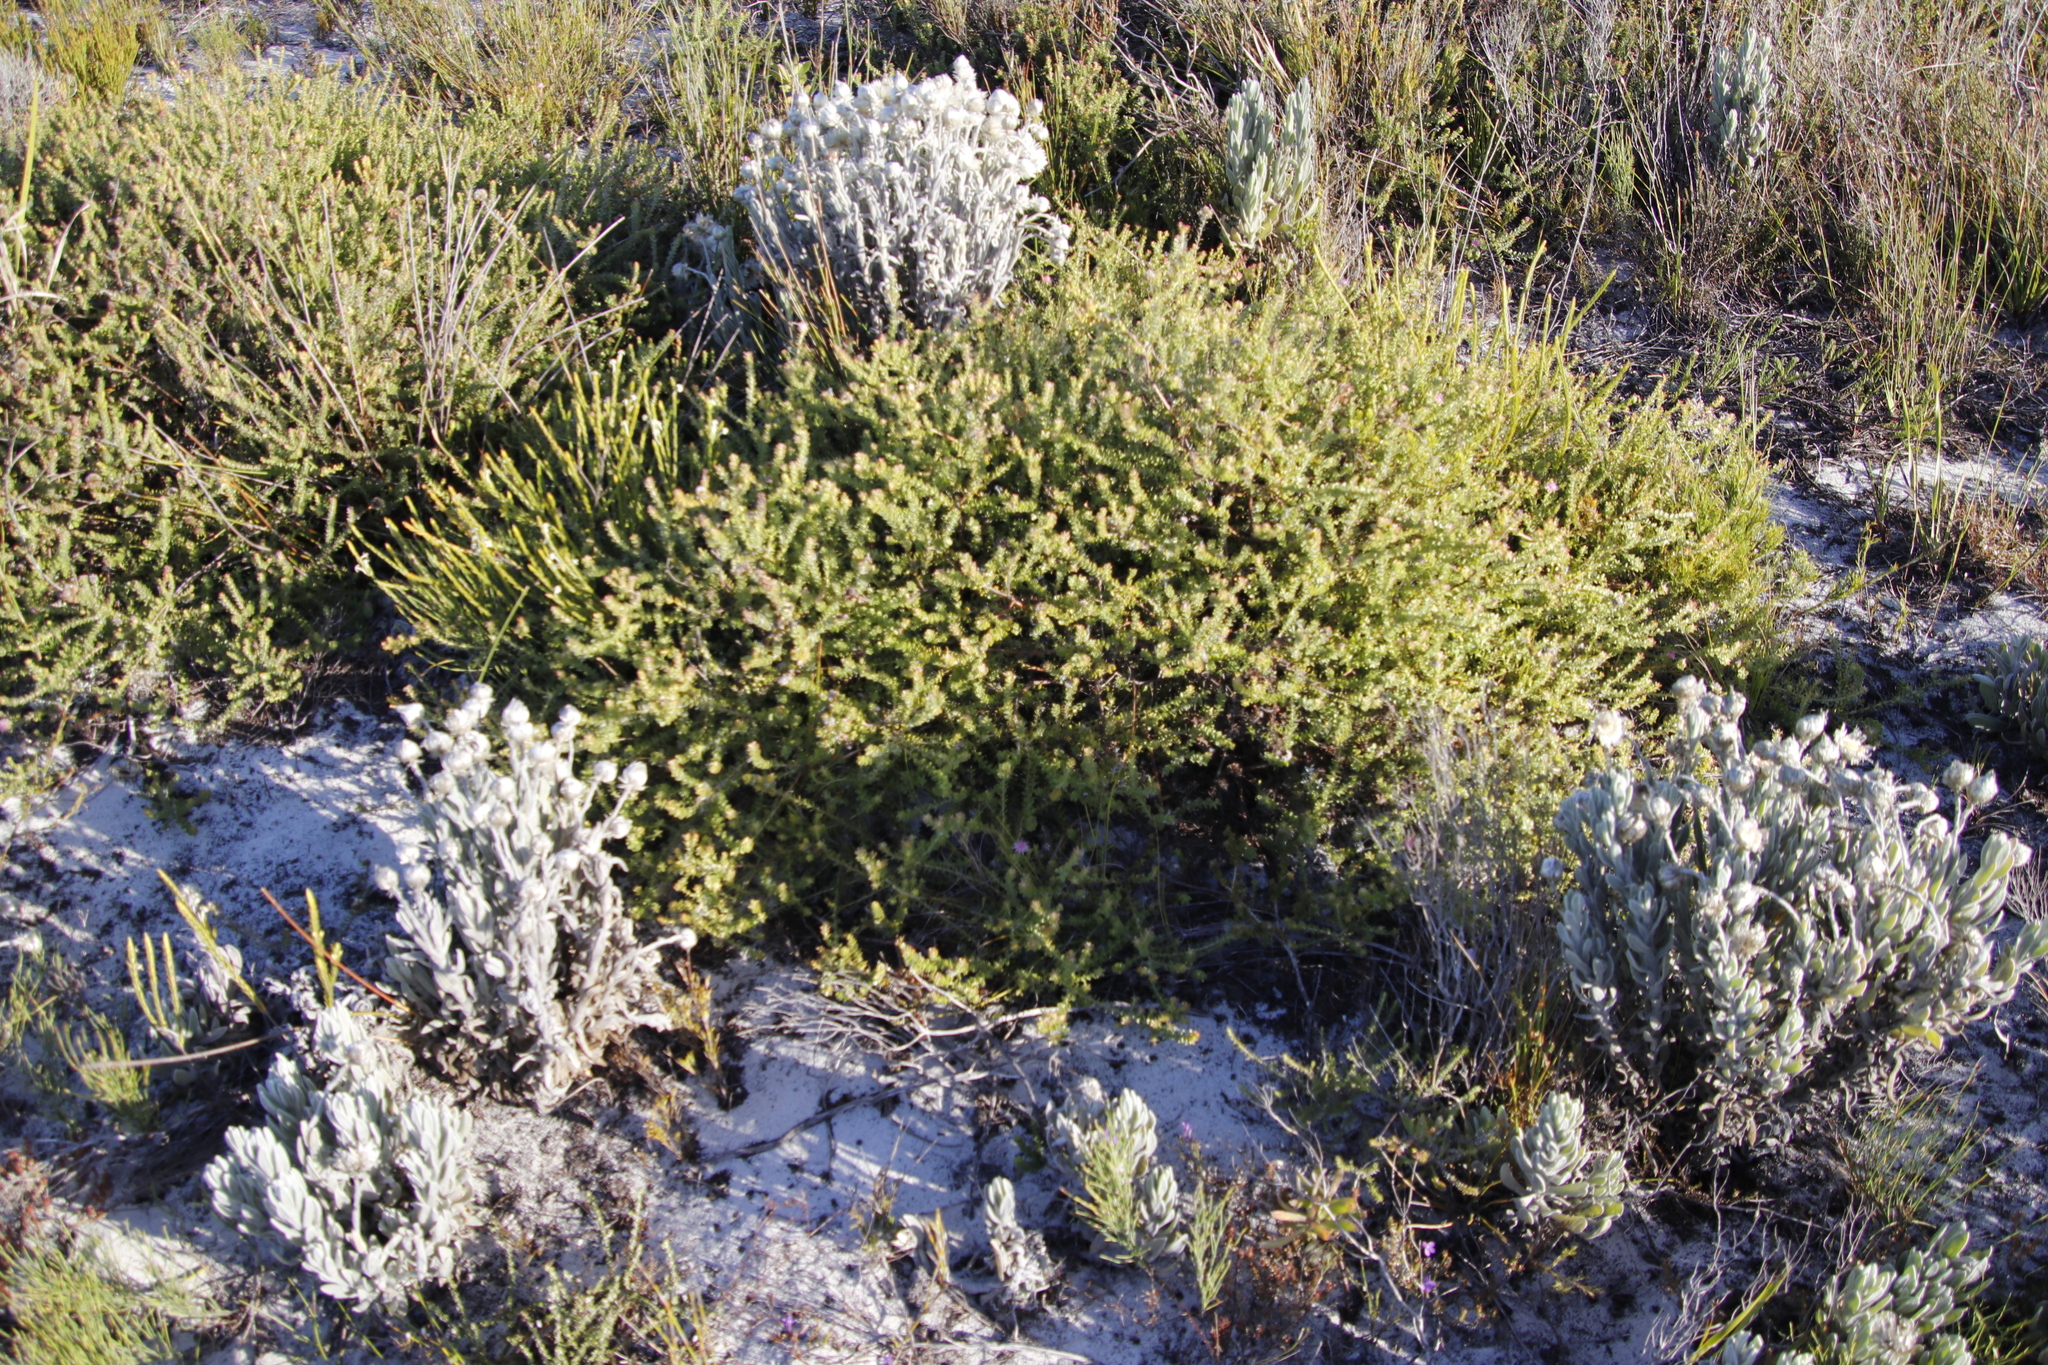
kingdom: Plantae
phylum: Tracheophyta
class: Magnoliopsida
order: Proteales
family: Proteaceae
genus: Diastella
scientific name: Diastella divaricata
